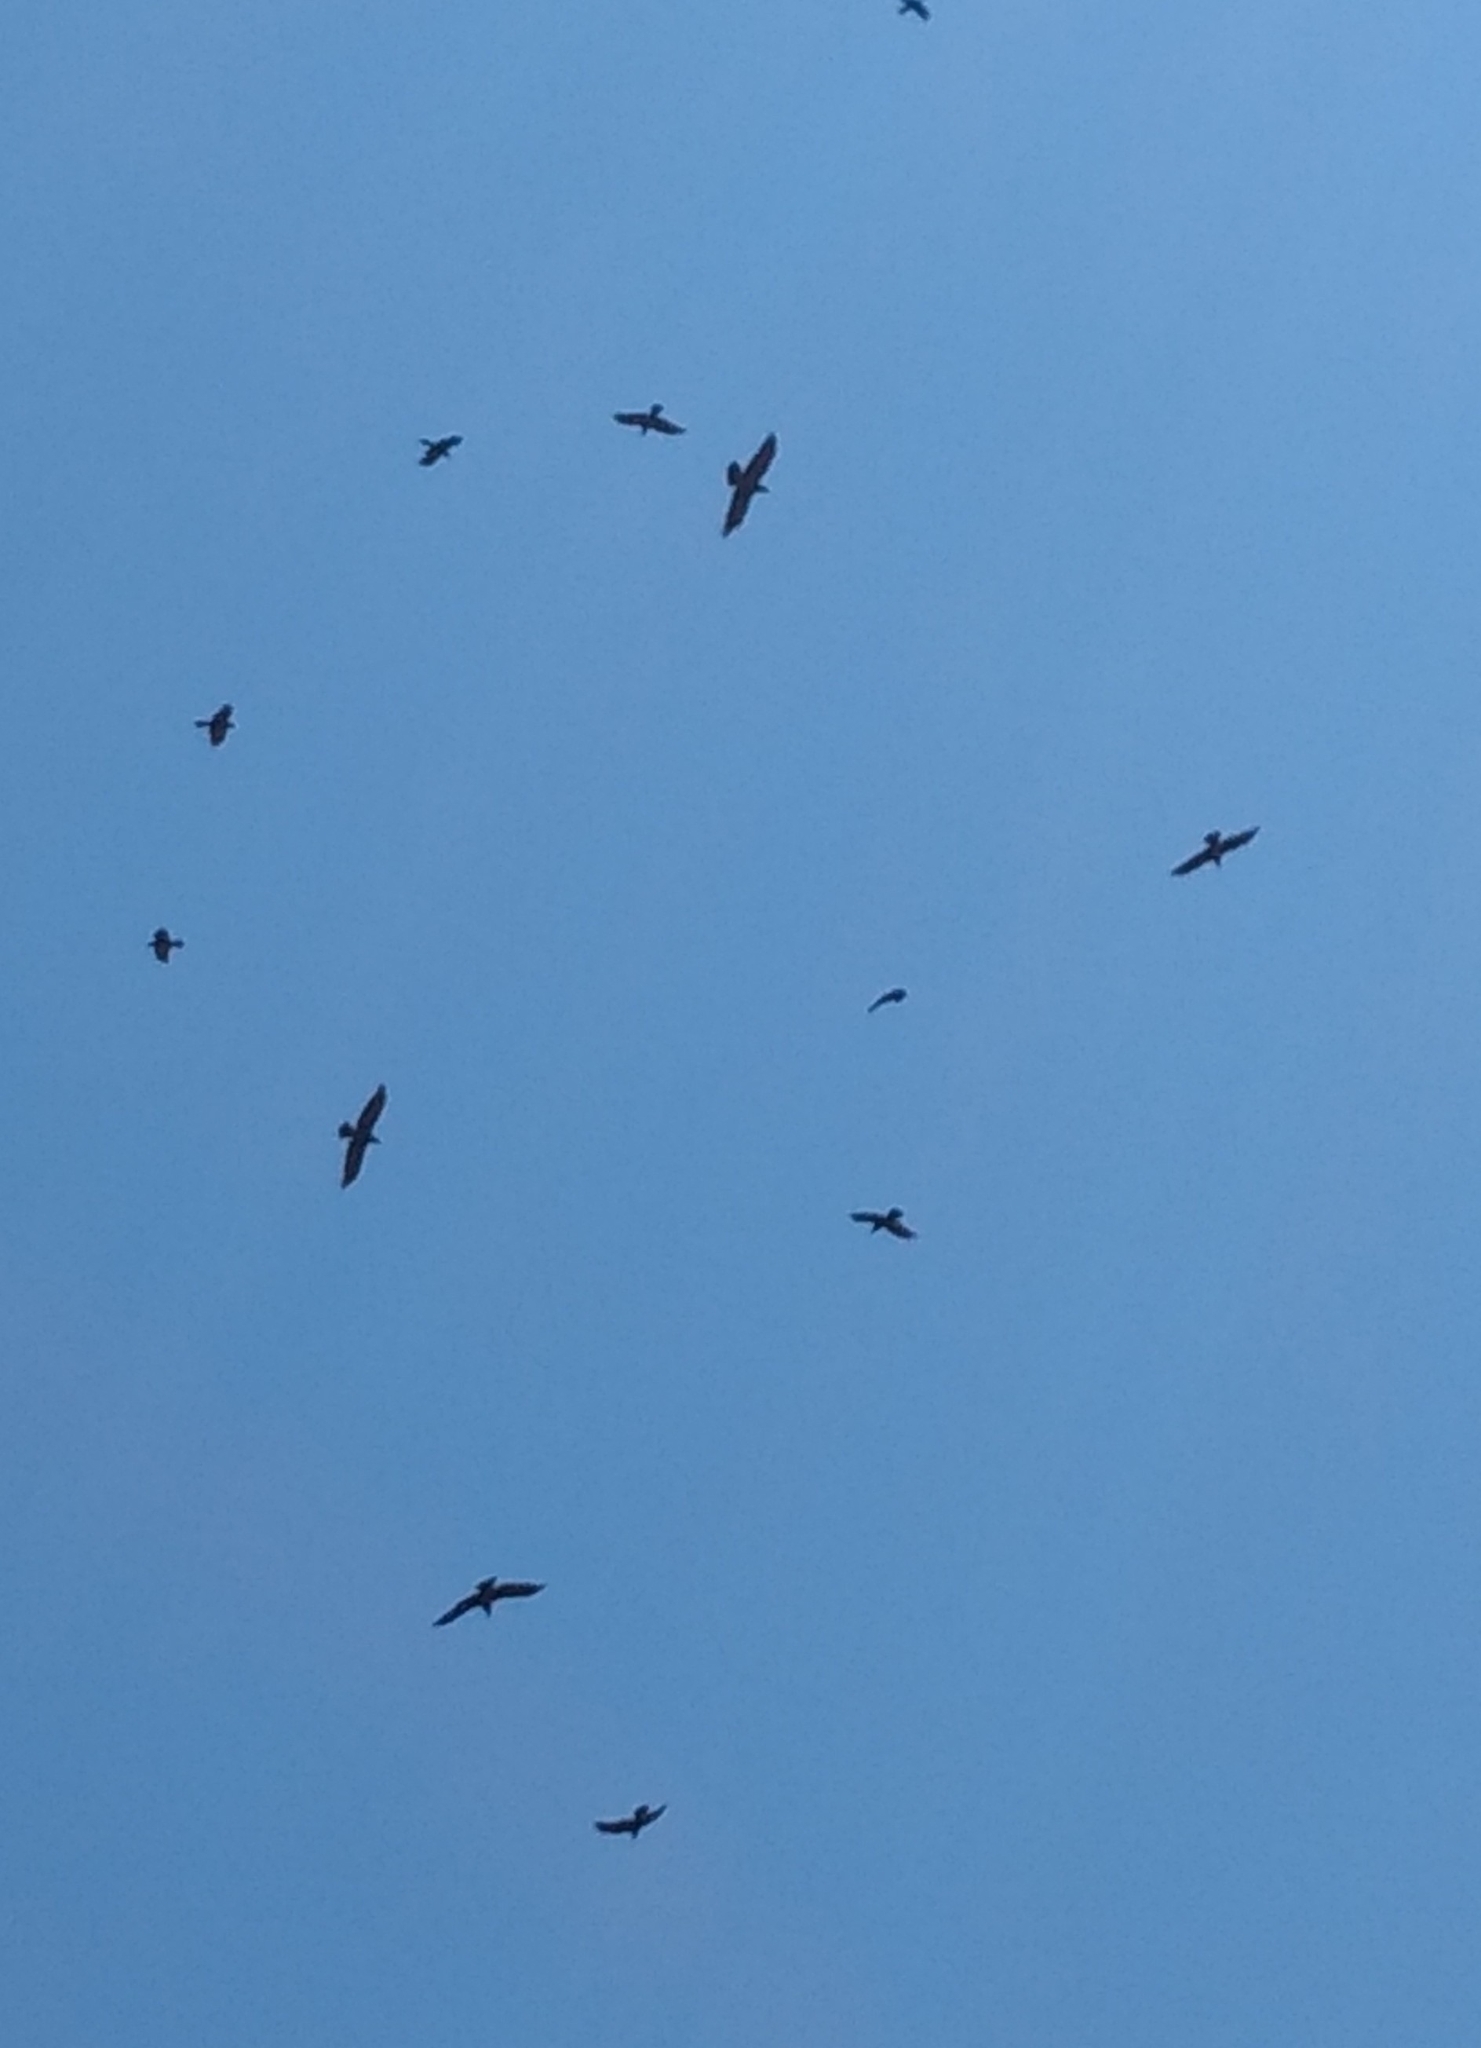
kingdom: Animalia
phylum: Chordata
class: Aves
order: Passeriformes
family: Corvidae
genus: Corvus
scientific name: Corvus corax
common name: Common raven
